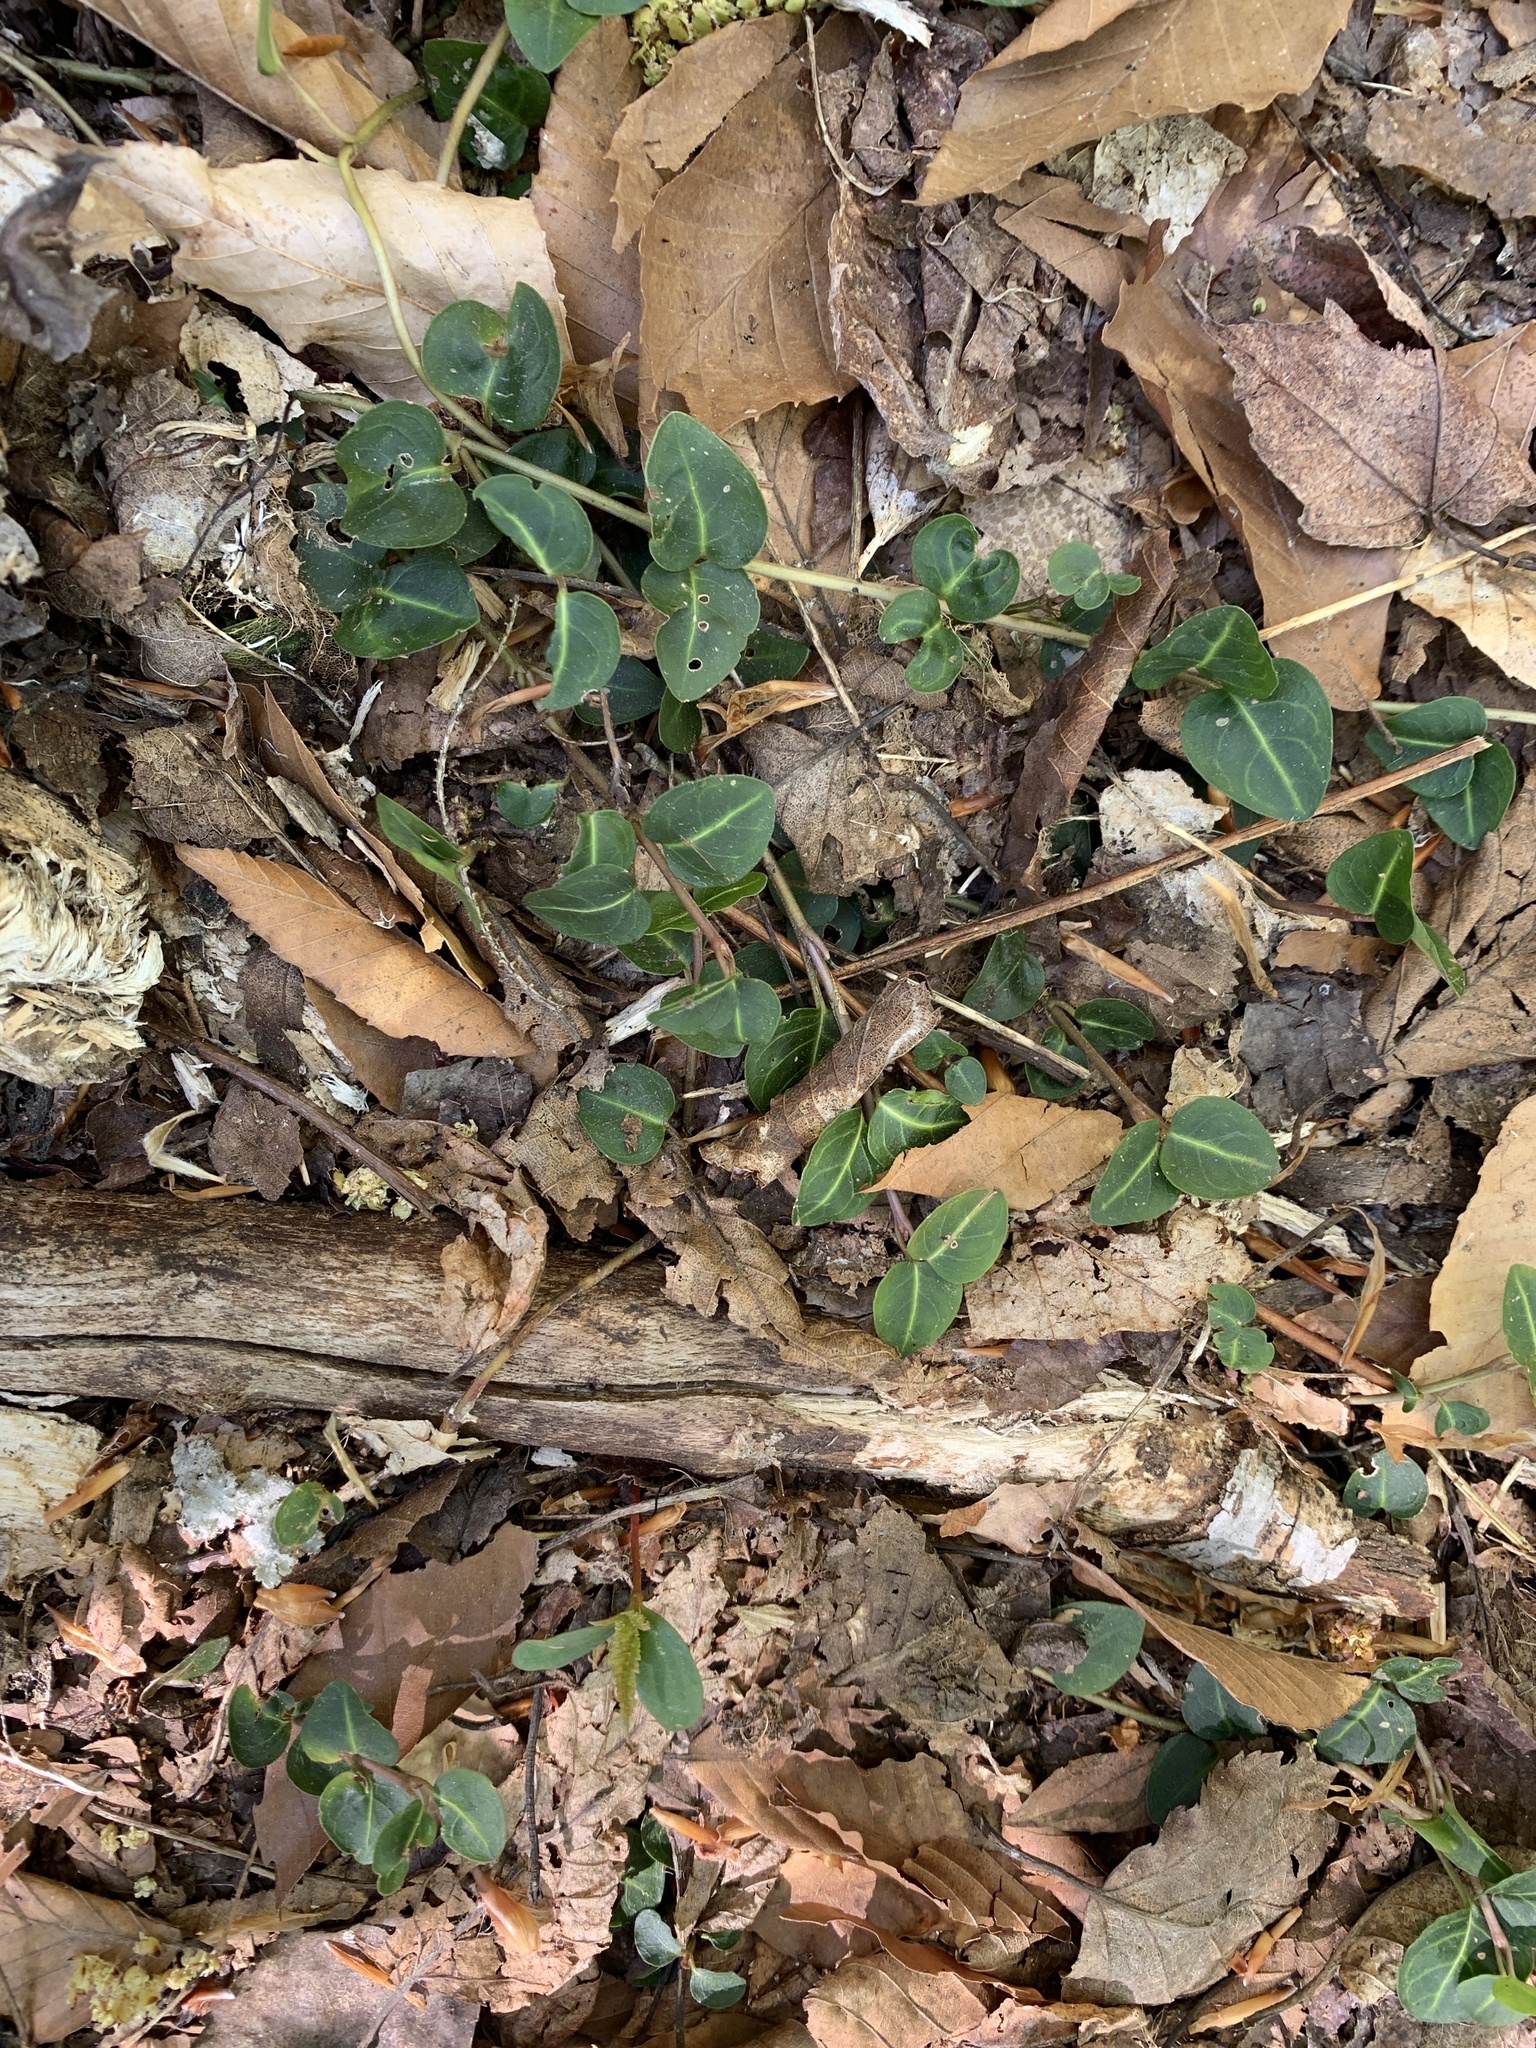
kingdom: Plantae
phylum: Tracheophyta
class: Magnoliopsida
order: Gentianales
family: Rubiaceae
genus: Mitchella
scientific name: Mitchella repens
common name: Partridge-berry
